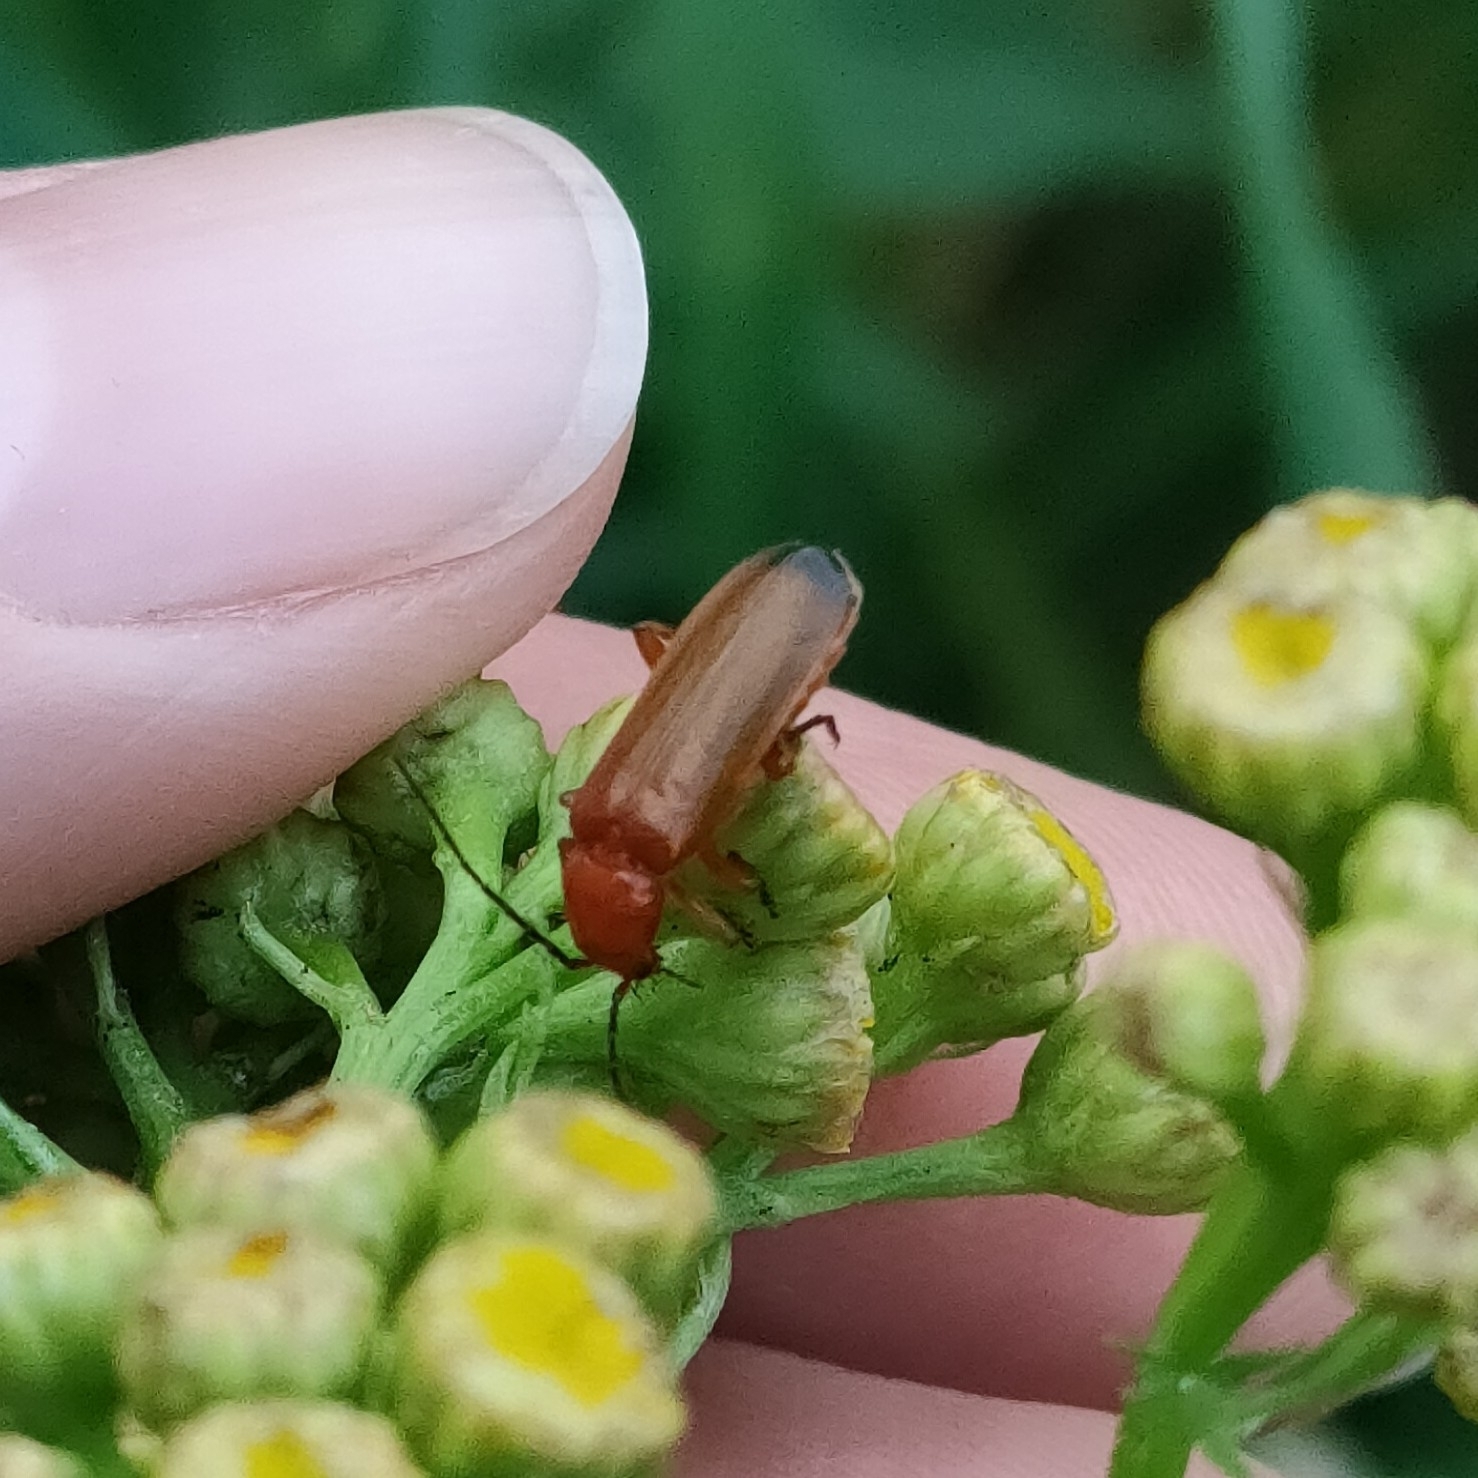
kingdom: Animalia
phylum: Arthropoda
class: Insecta
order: Coleoptera
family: Cantharidae
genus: Rhagonycha
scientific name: Rhagonycha fulva
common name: Common red soldier beetle
